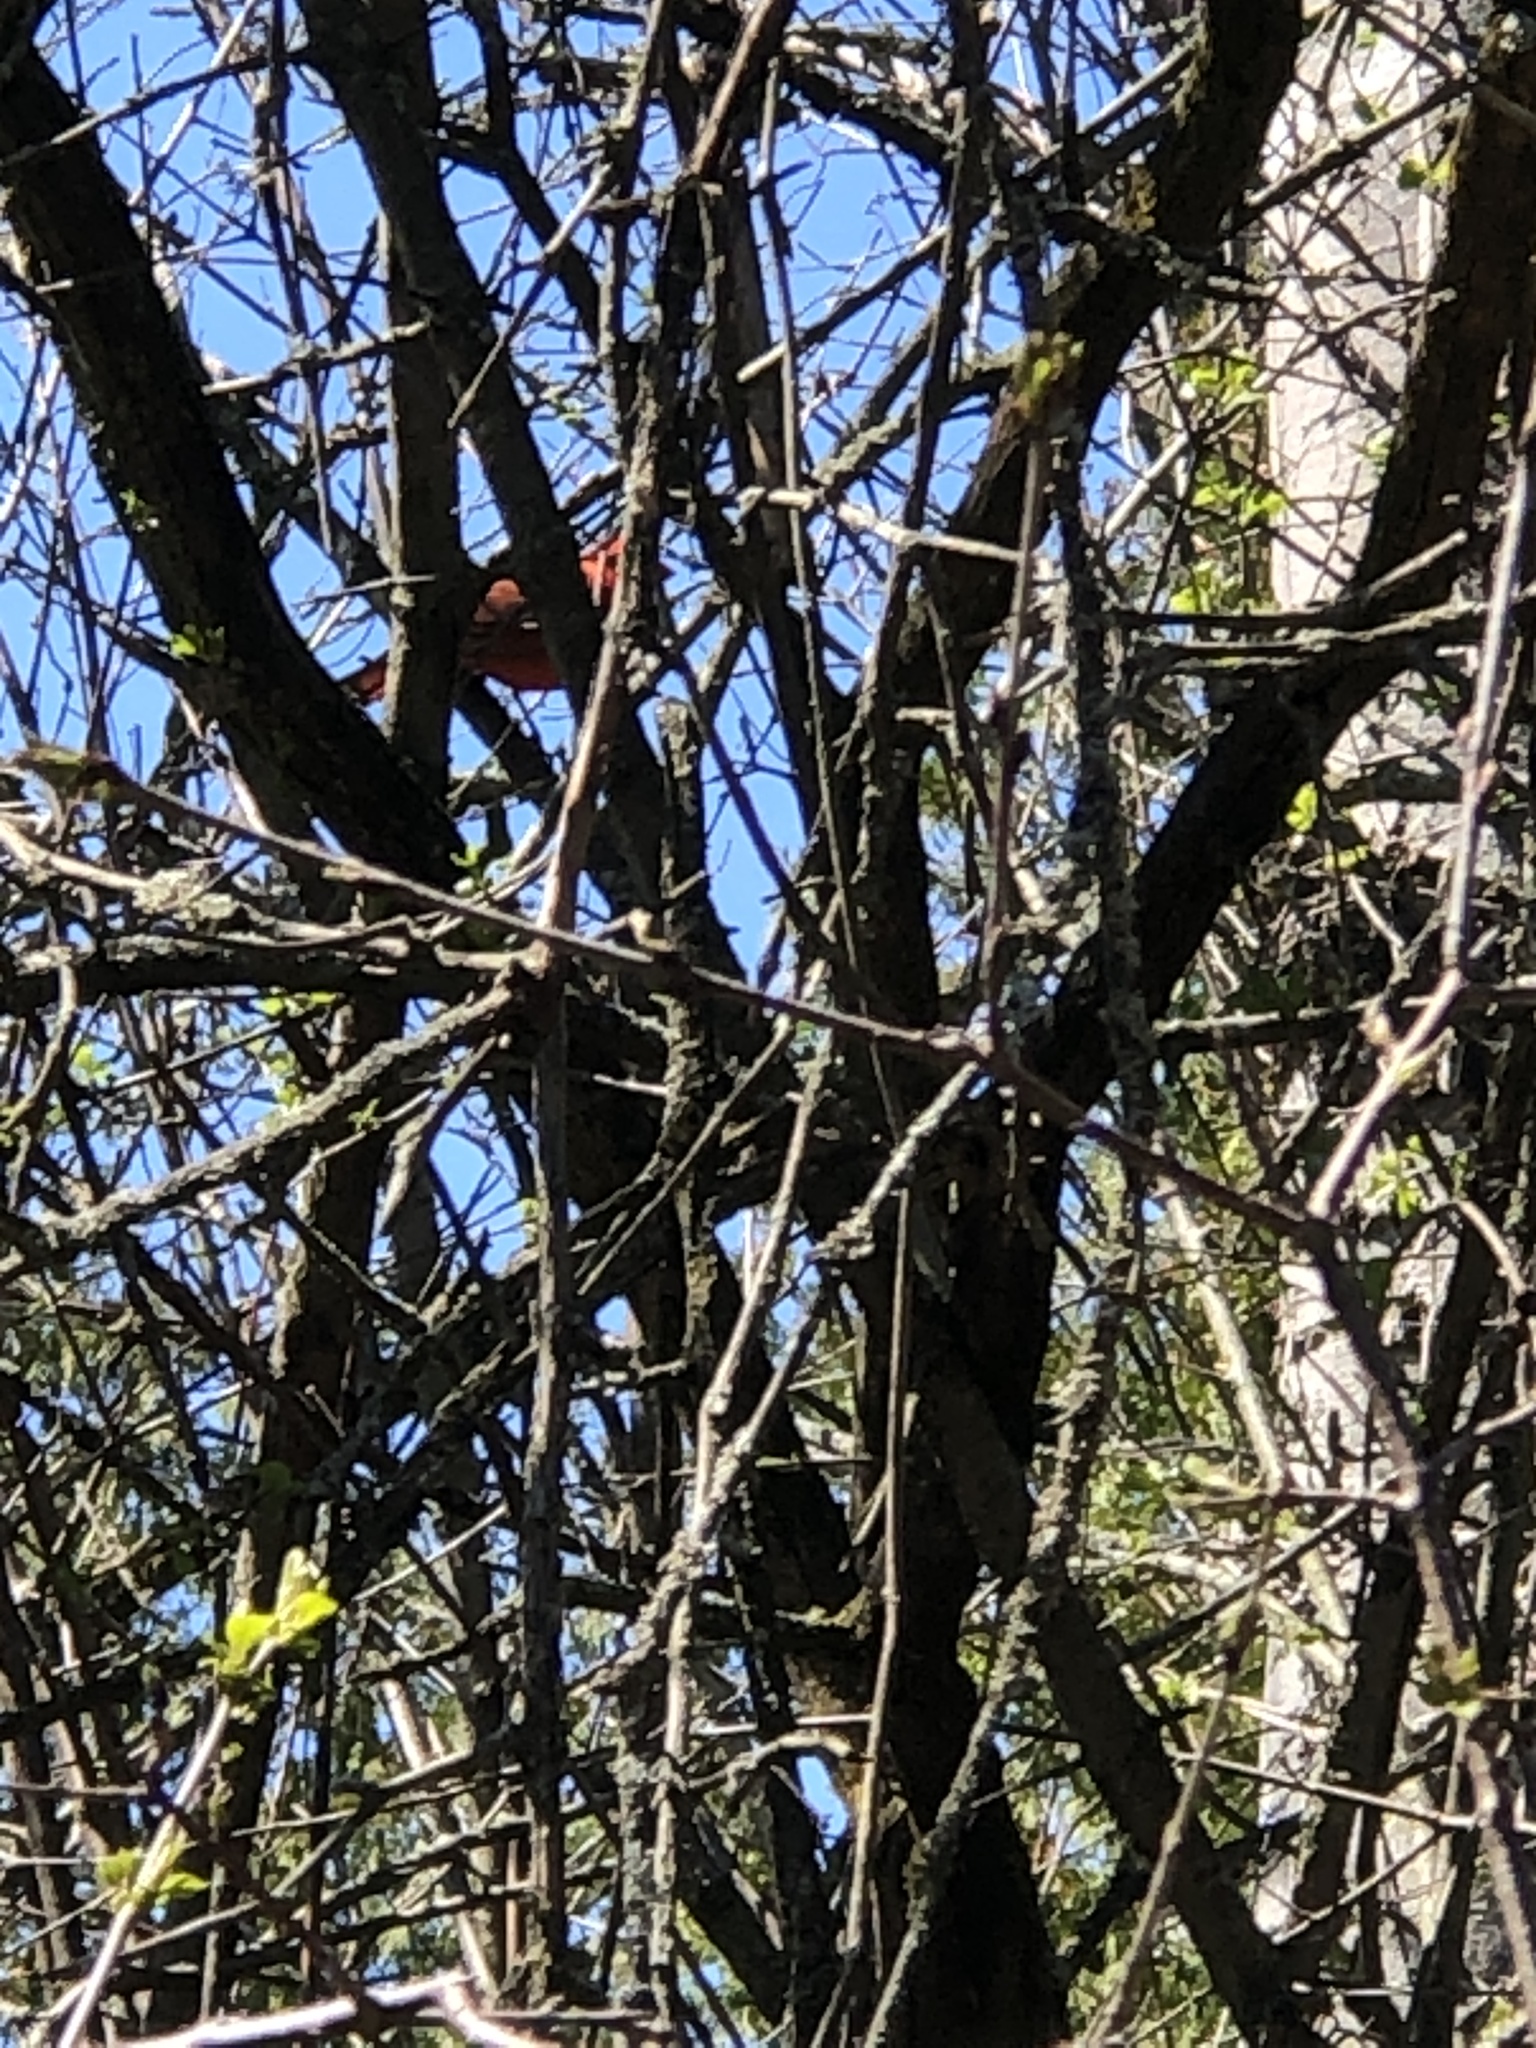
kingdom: Animalia
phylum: Chordata
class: Aves
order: Passeriformes
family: Cardinalidae
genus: Cardinalis
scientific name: Cardinalis cardinalis
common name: Northern cardinal
